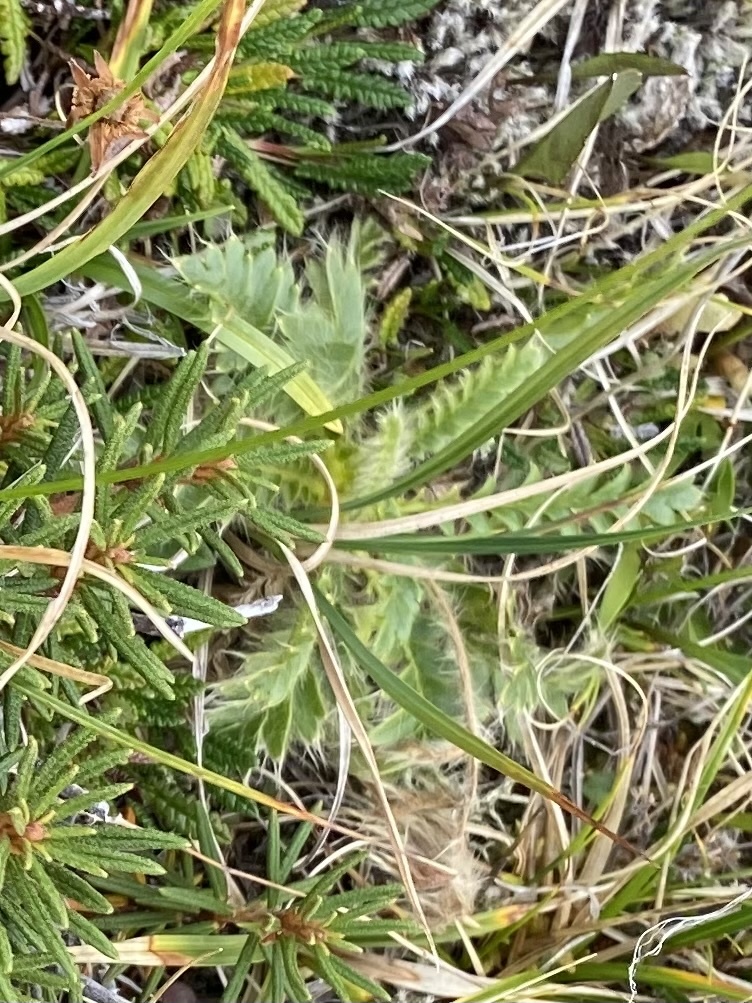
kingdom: Plantae
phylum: Tracheophyta
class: Magnoliopsida
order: Rosales
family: Rosaceae
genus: Geum
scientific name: Geum glaciale
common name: Glacier avens
